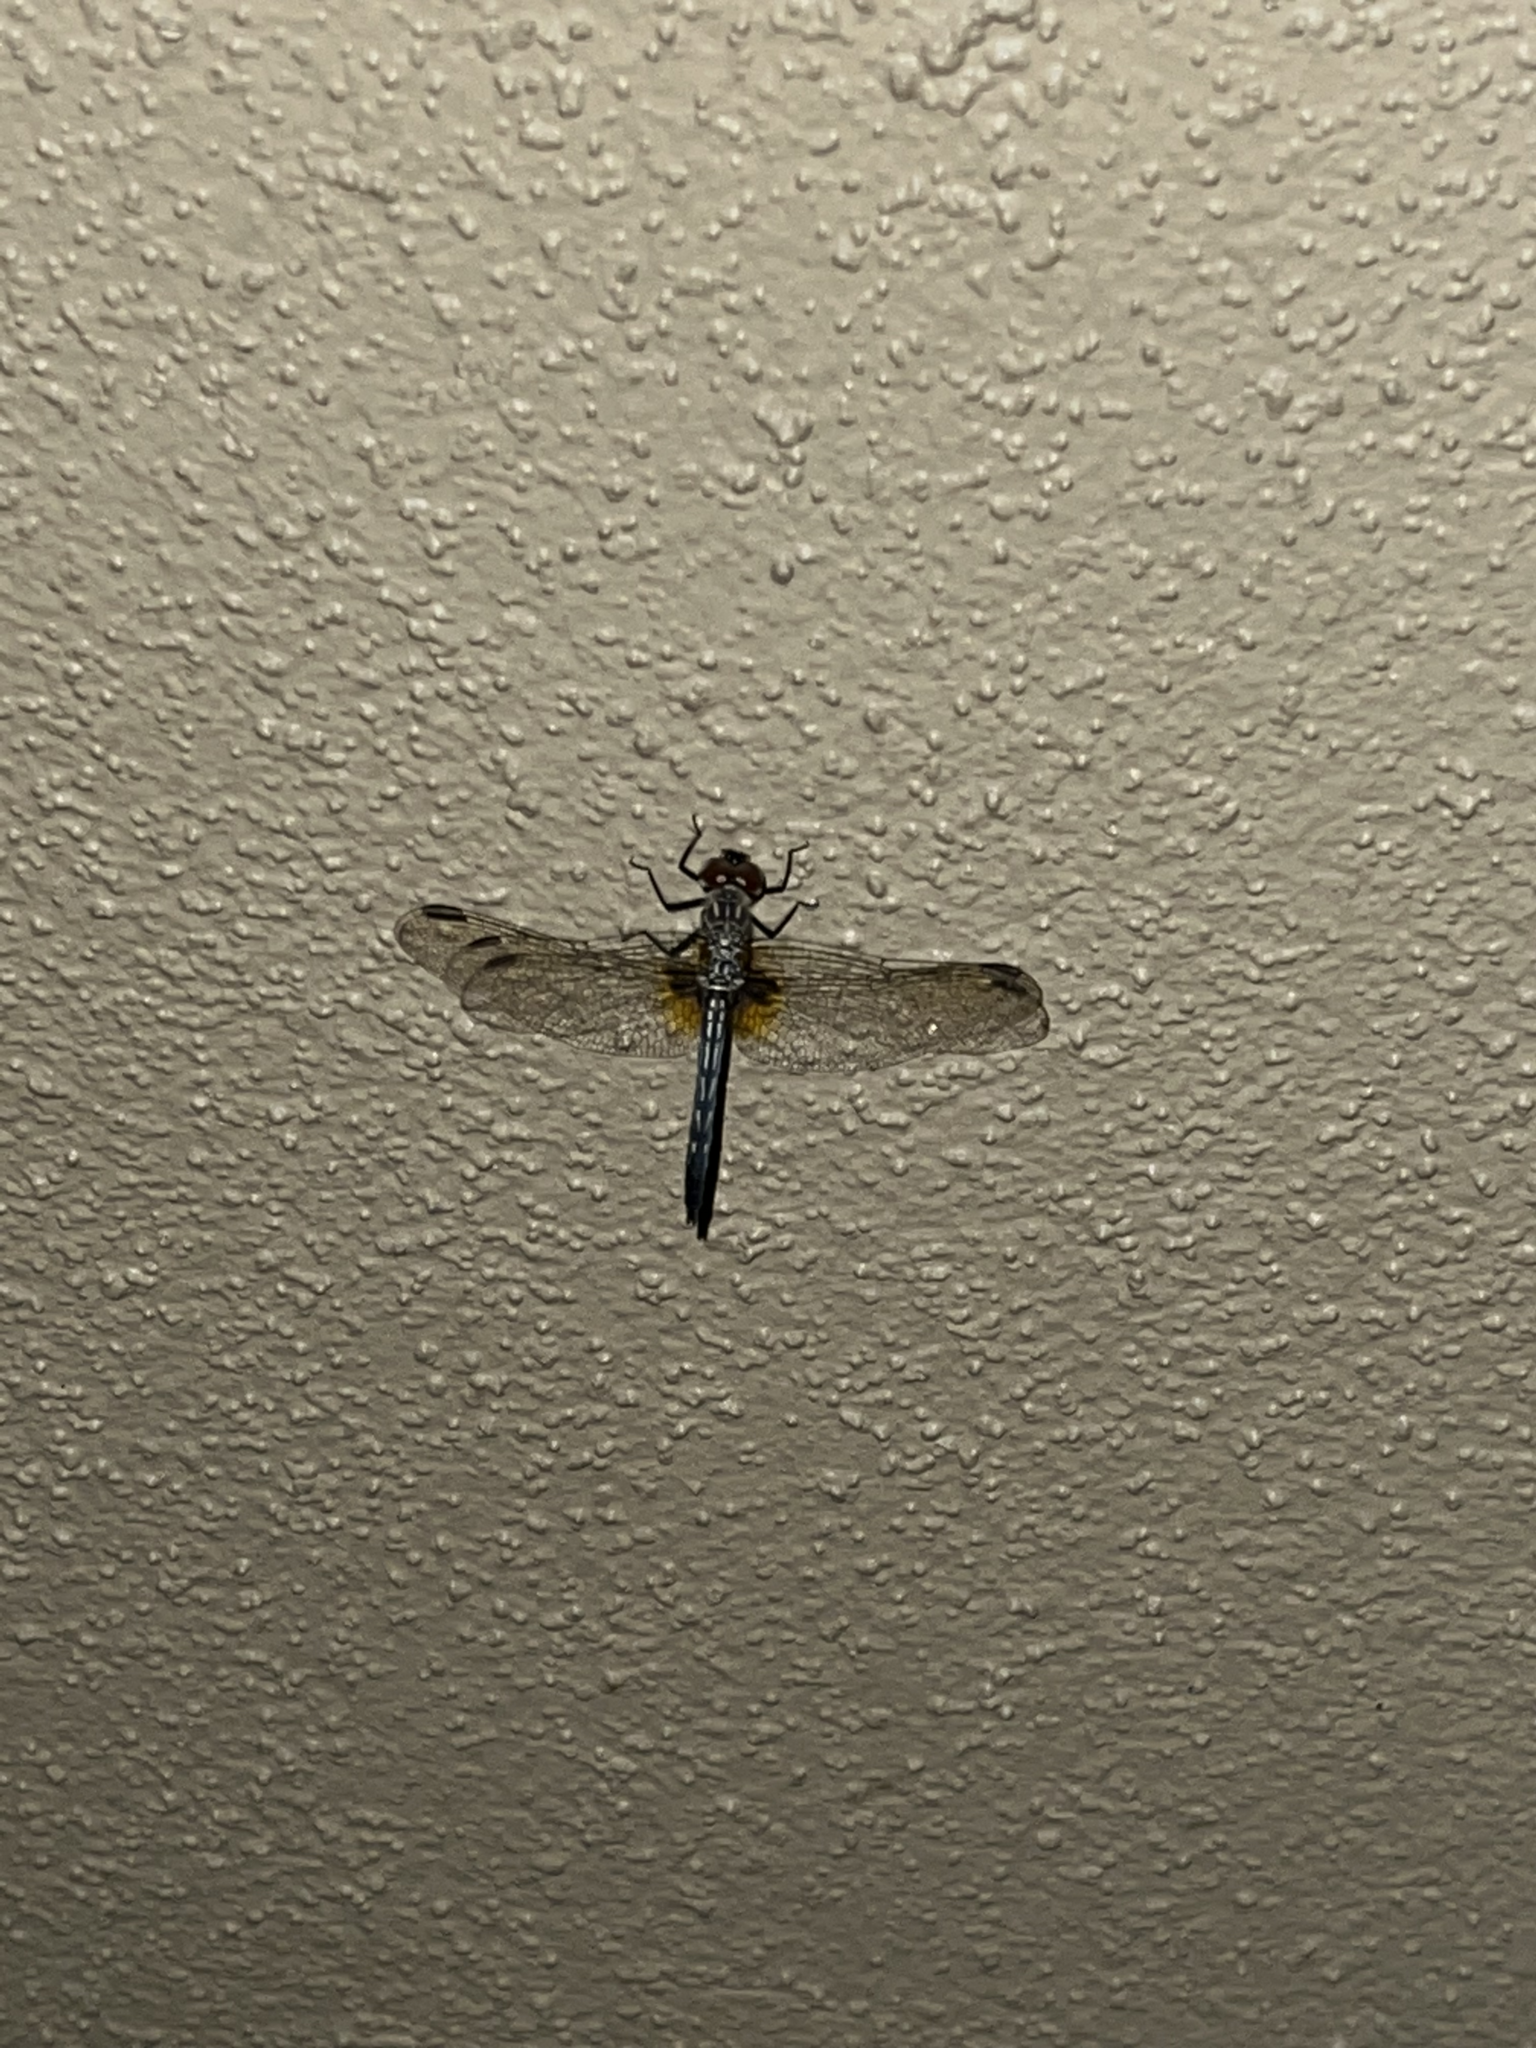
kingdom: Animalia
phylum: Arthropoda
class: Insecta
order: Odonata
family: Libellulidae
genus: Pachydiplax
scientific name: Pachydiplax longipennis
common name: Blue dasher
